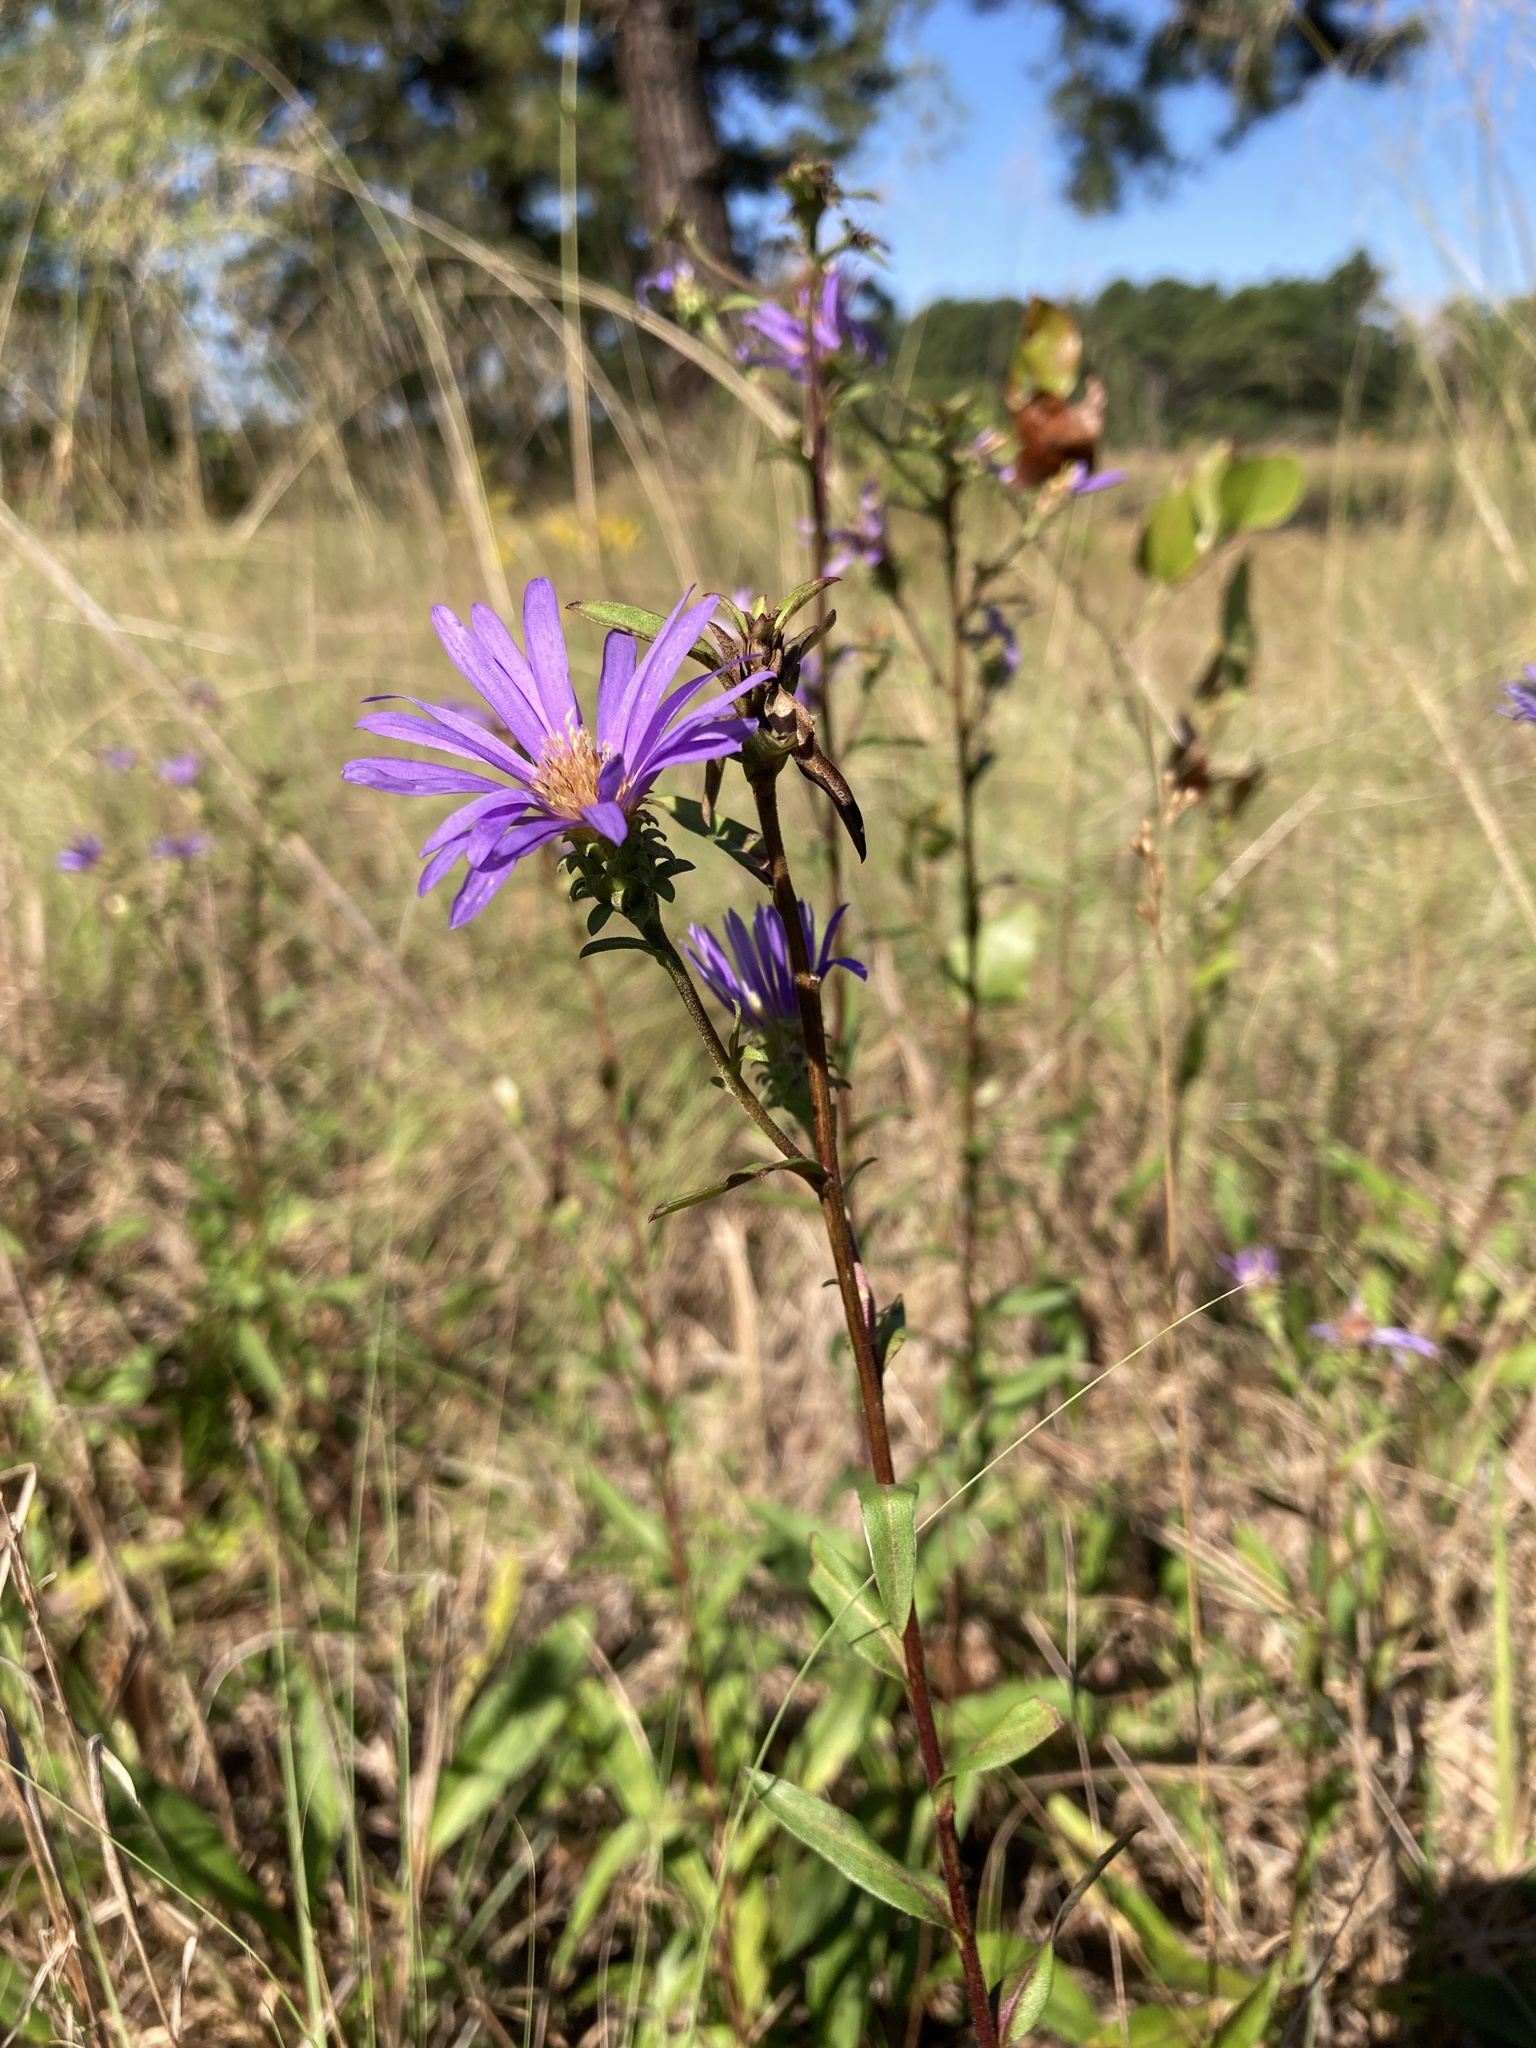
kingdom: Plantae
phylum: Tracheophyta
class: Magnoliopsida
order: Asterales
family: Asteraceae
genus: Eurybia
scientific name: Eurybia spectabilis
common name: Low showy aster
